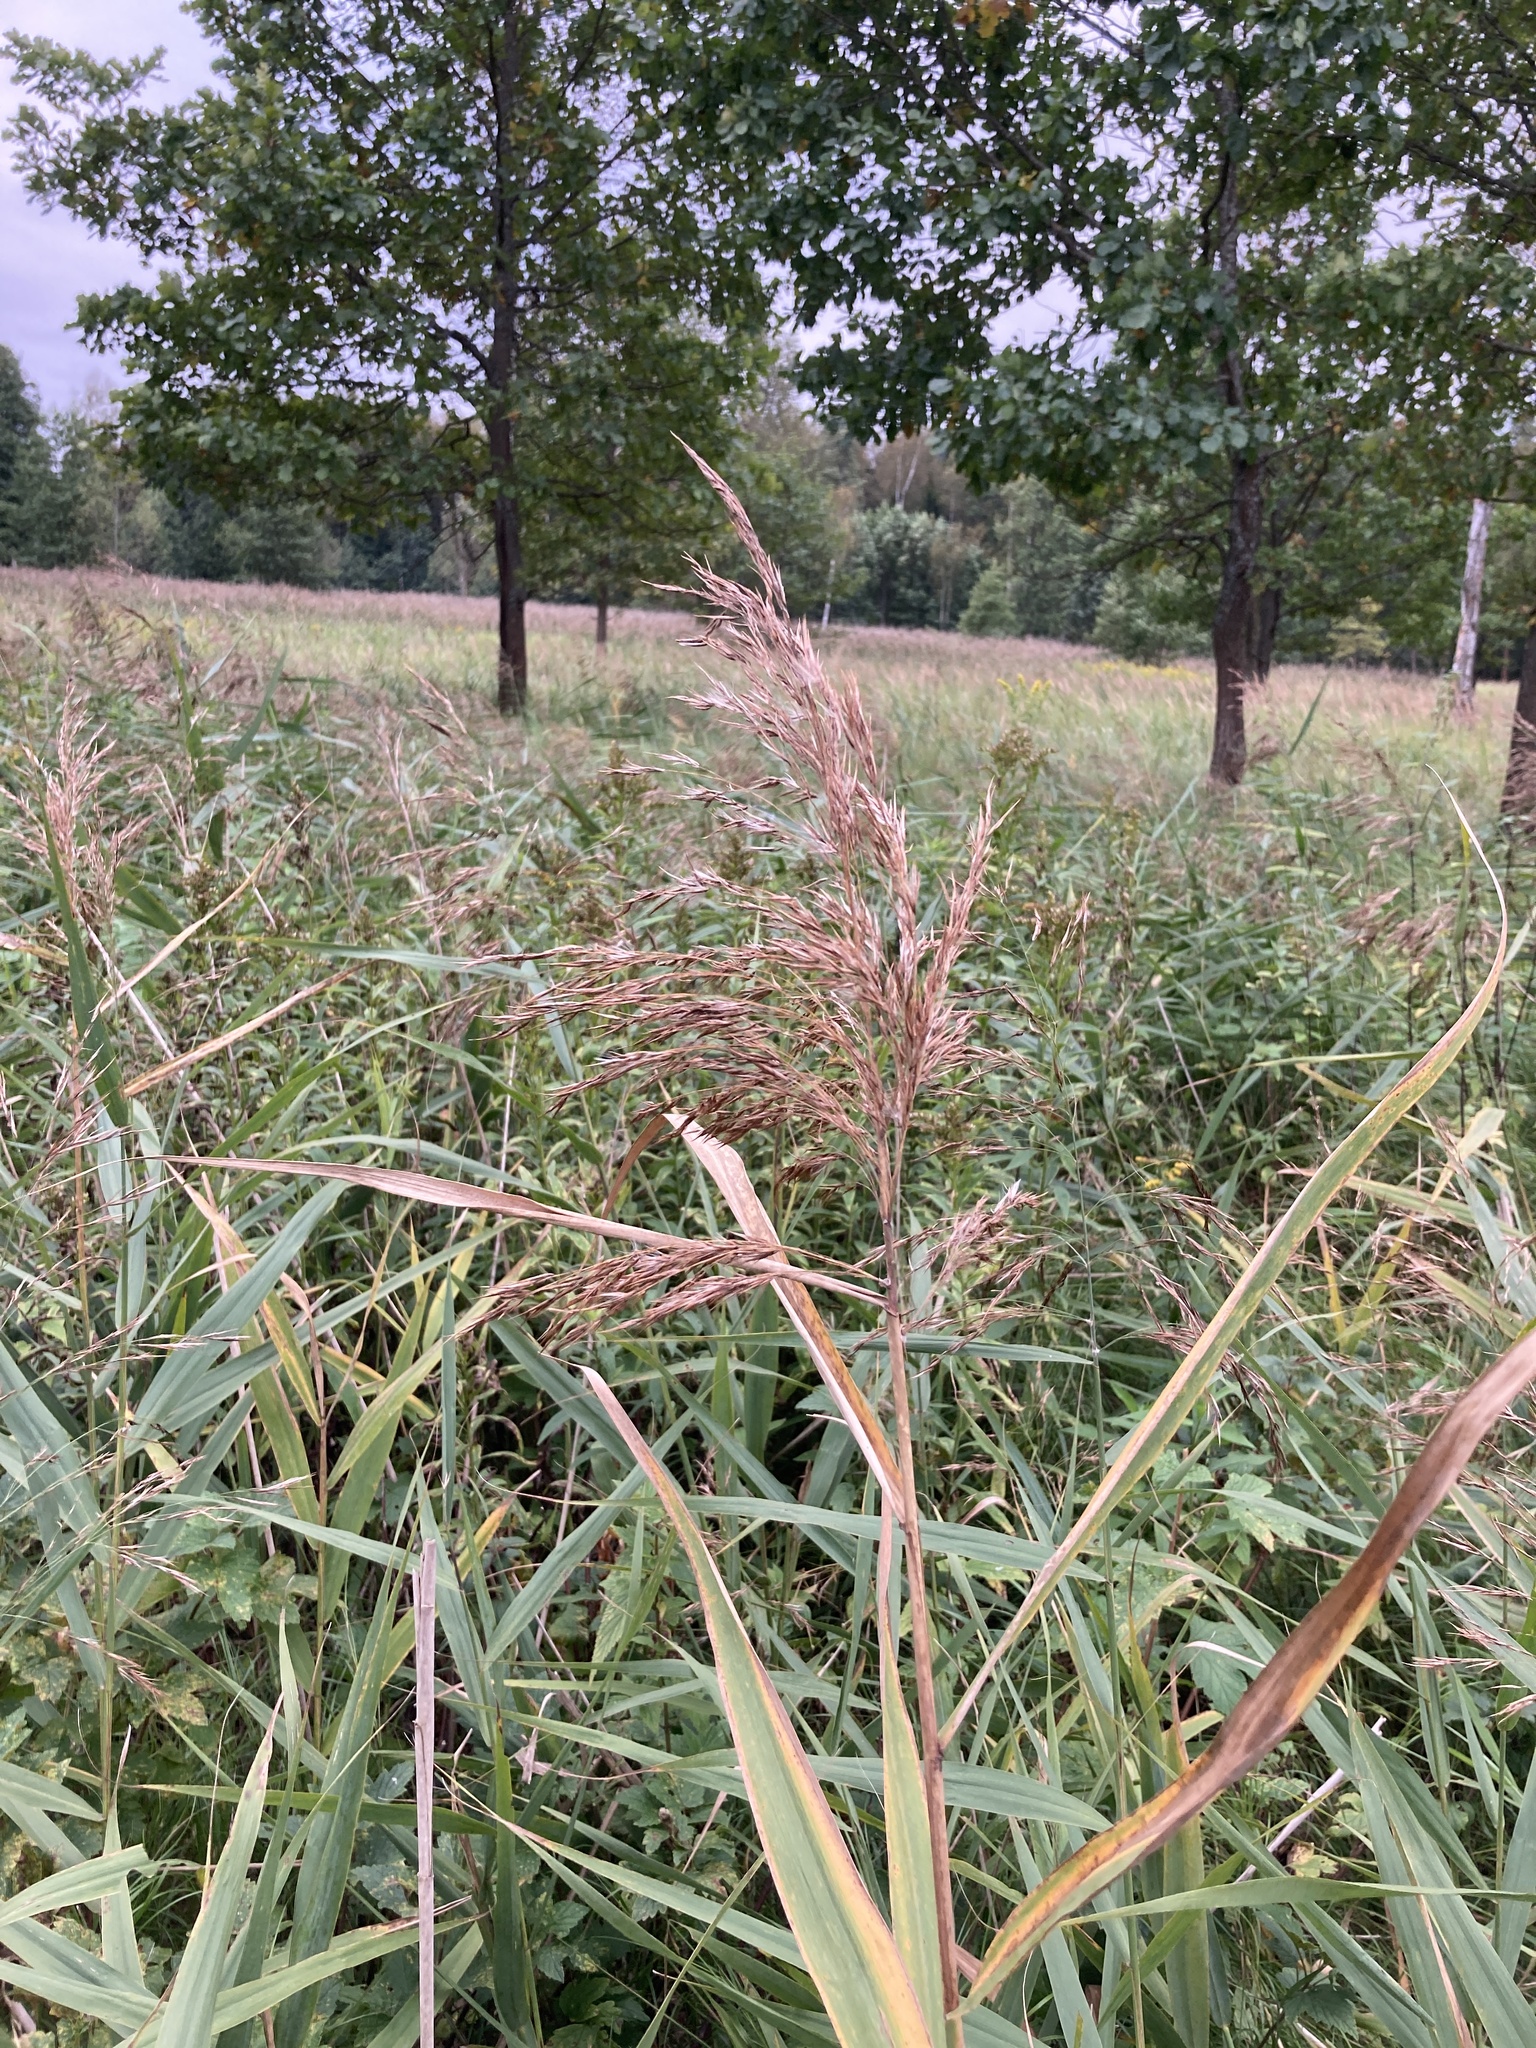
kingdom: Plantae
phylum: Tracheophyta
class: Liliopsida
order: Poales
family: Poaceae
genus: Phragmites
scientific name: Phragmites australis
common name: Common reed
